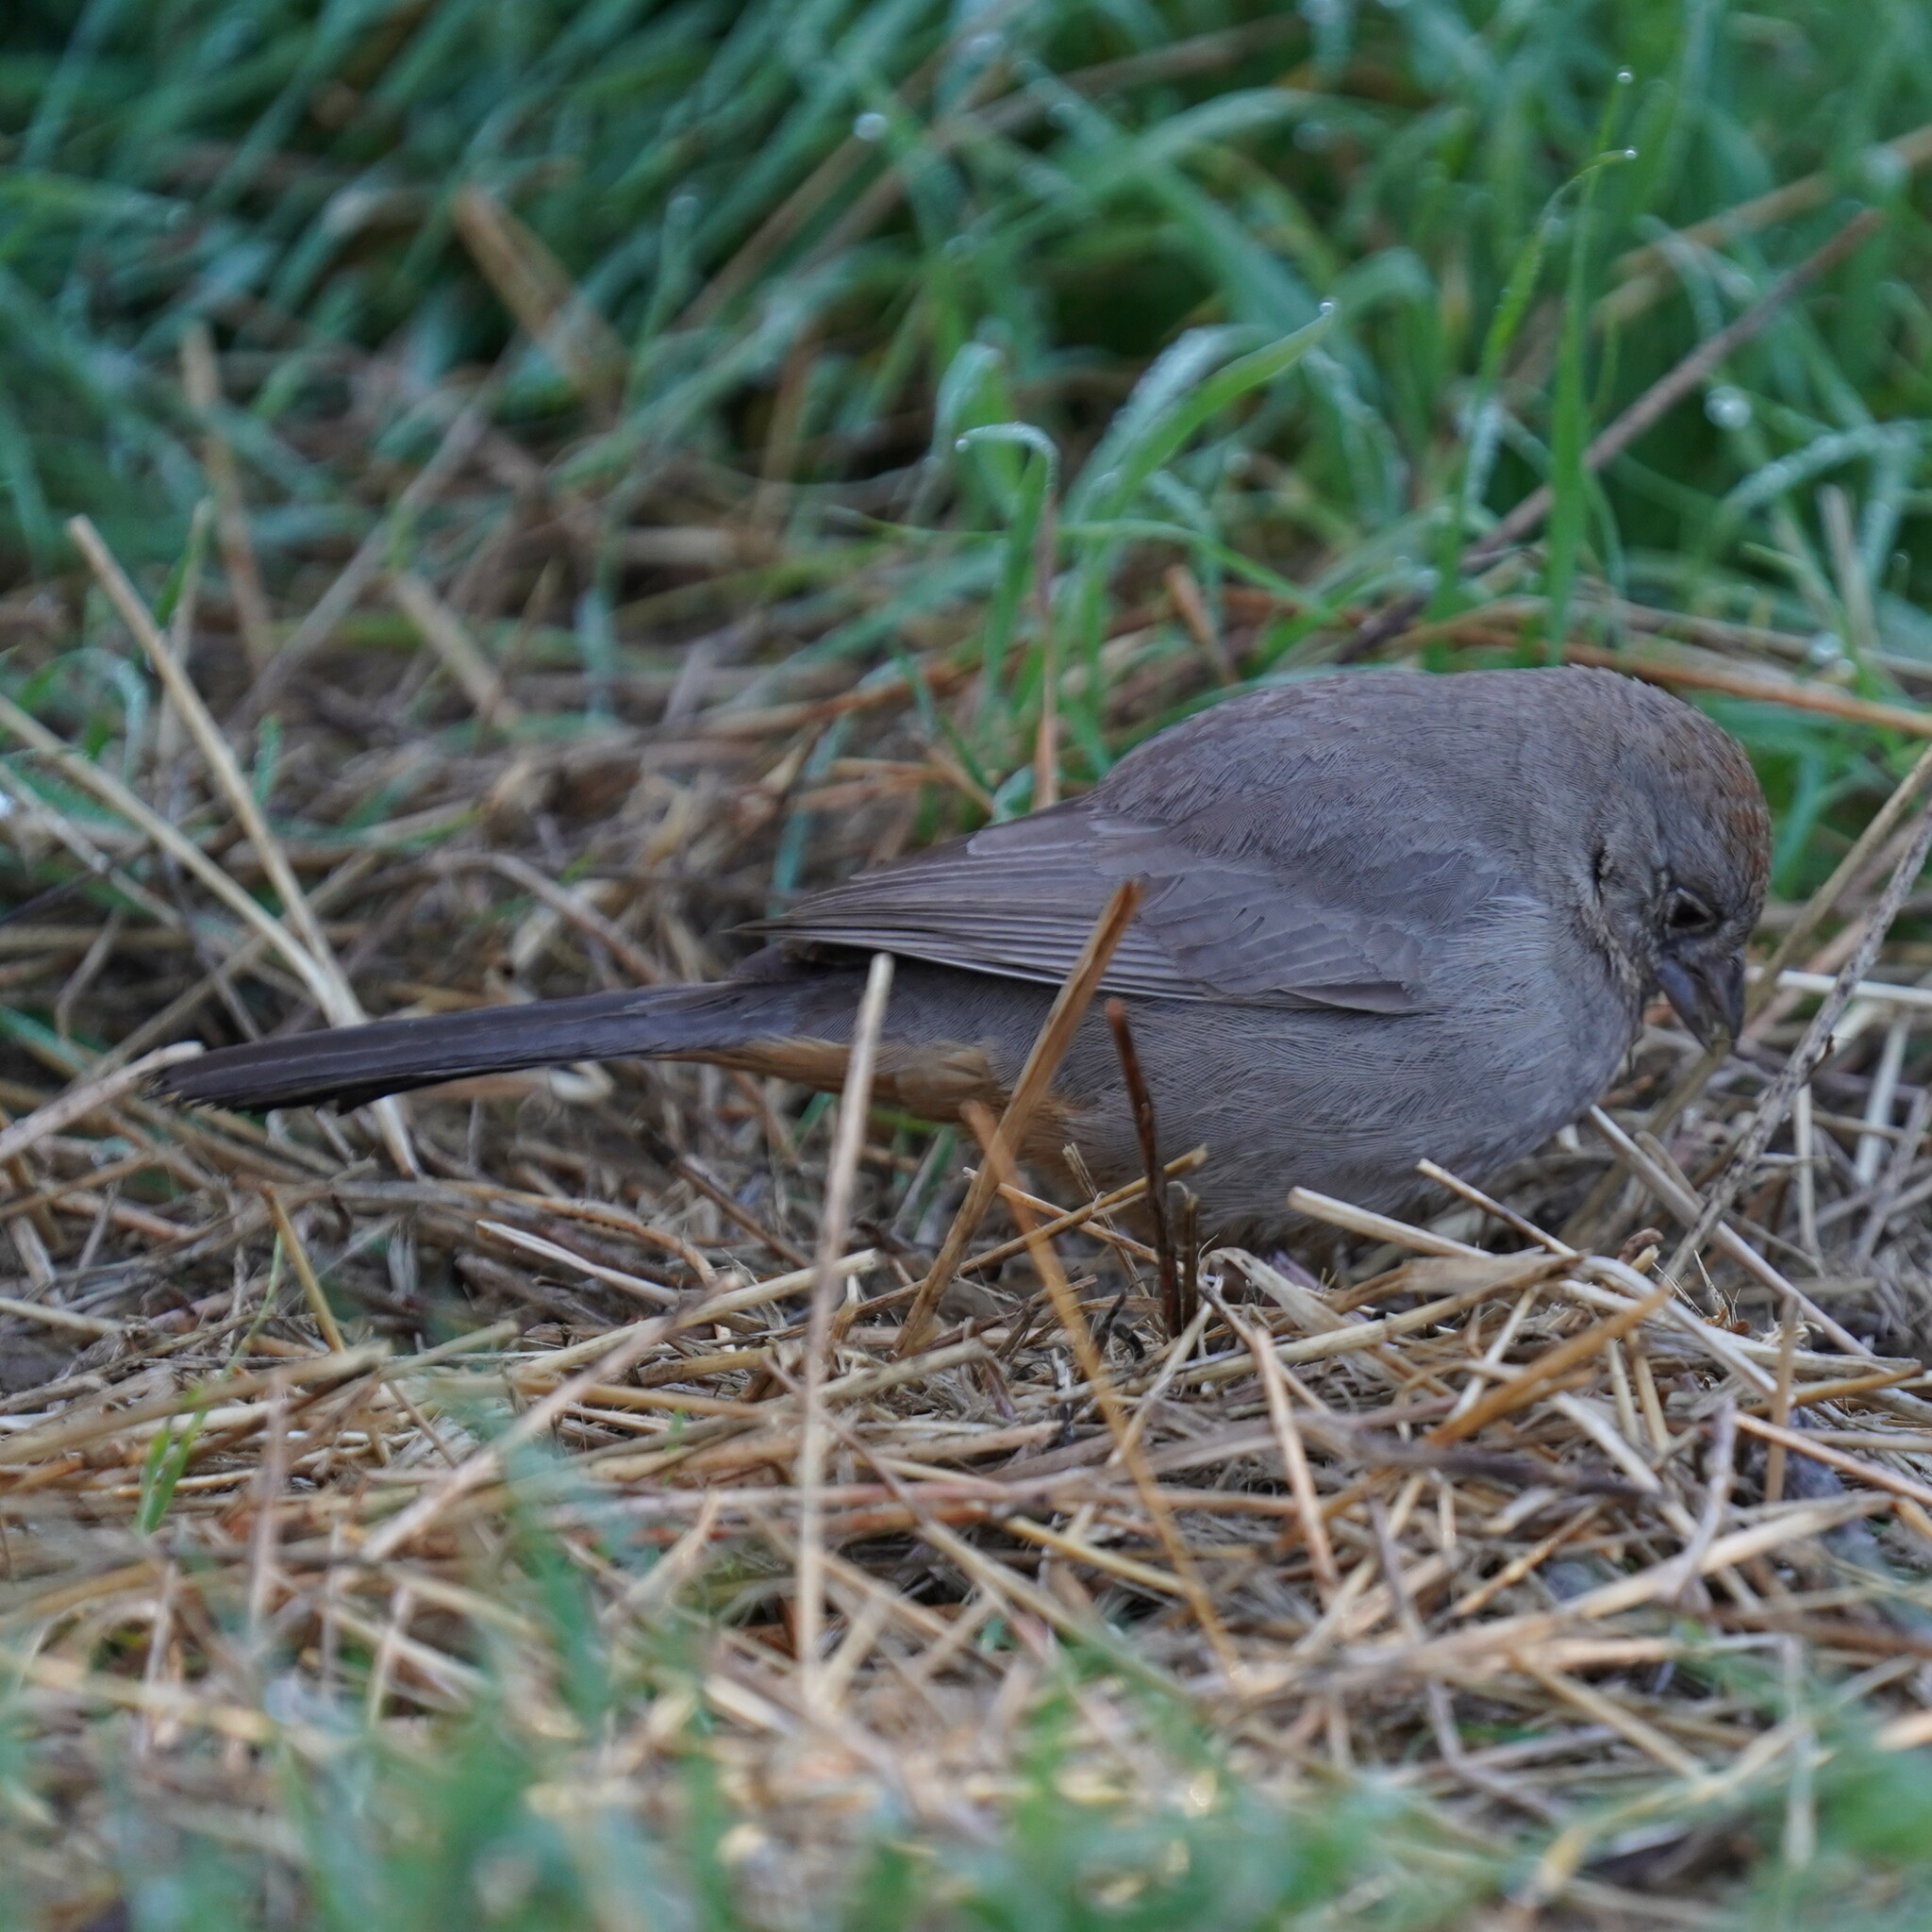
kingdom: Animalia
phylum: Chordata
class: Aves
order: Passeriformes
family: Passerellidae
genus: Melozone
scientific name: Melozone fusca
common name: Canyon towhee
